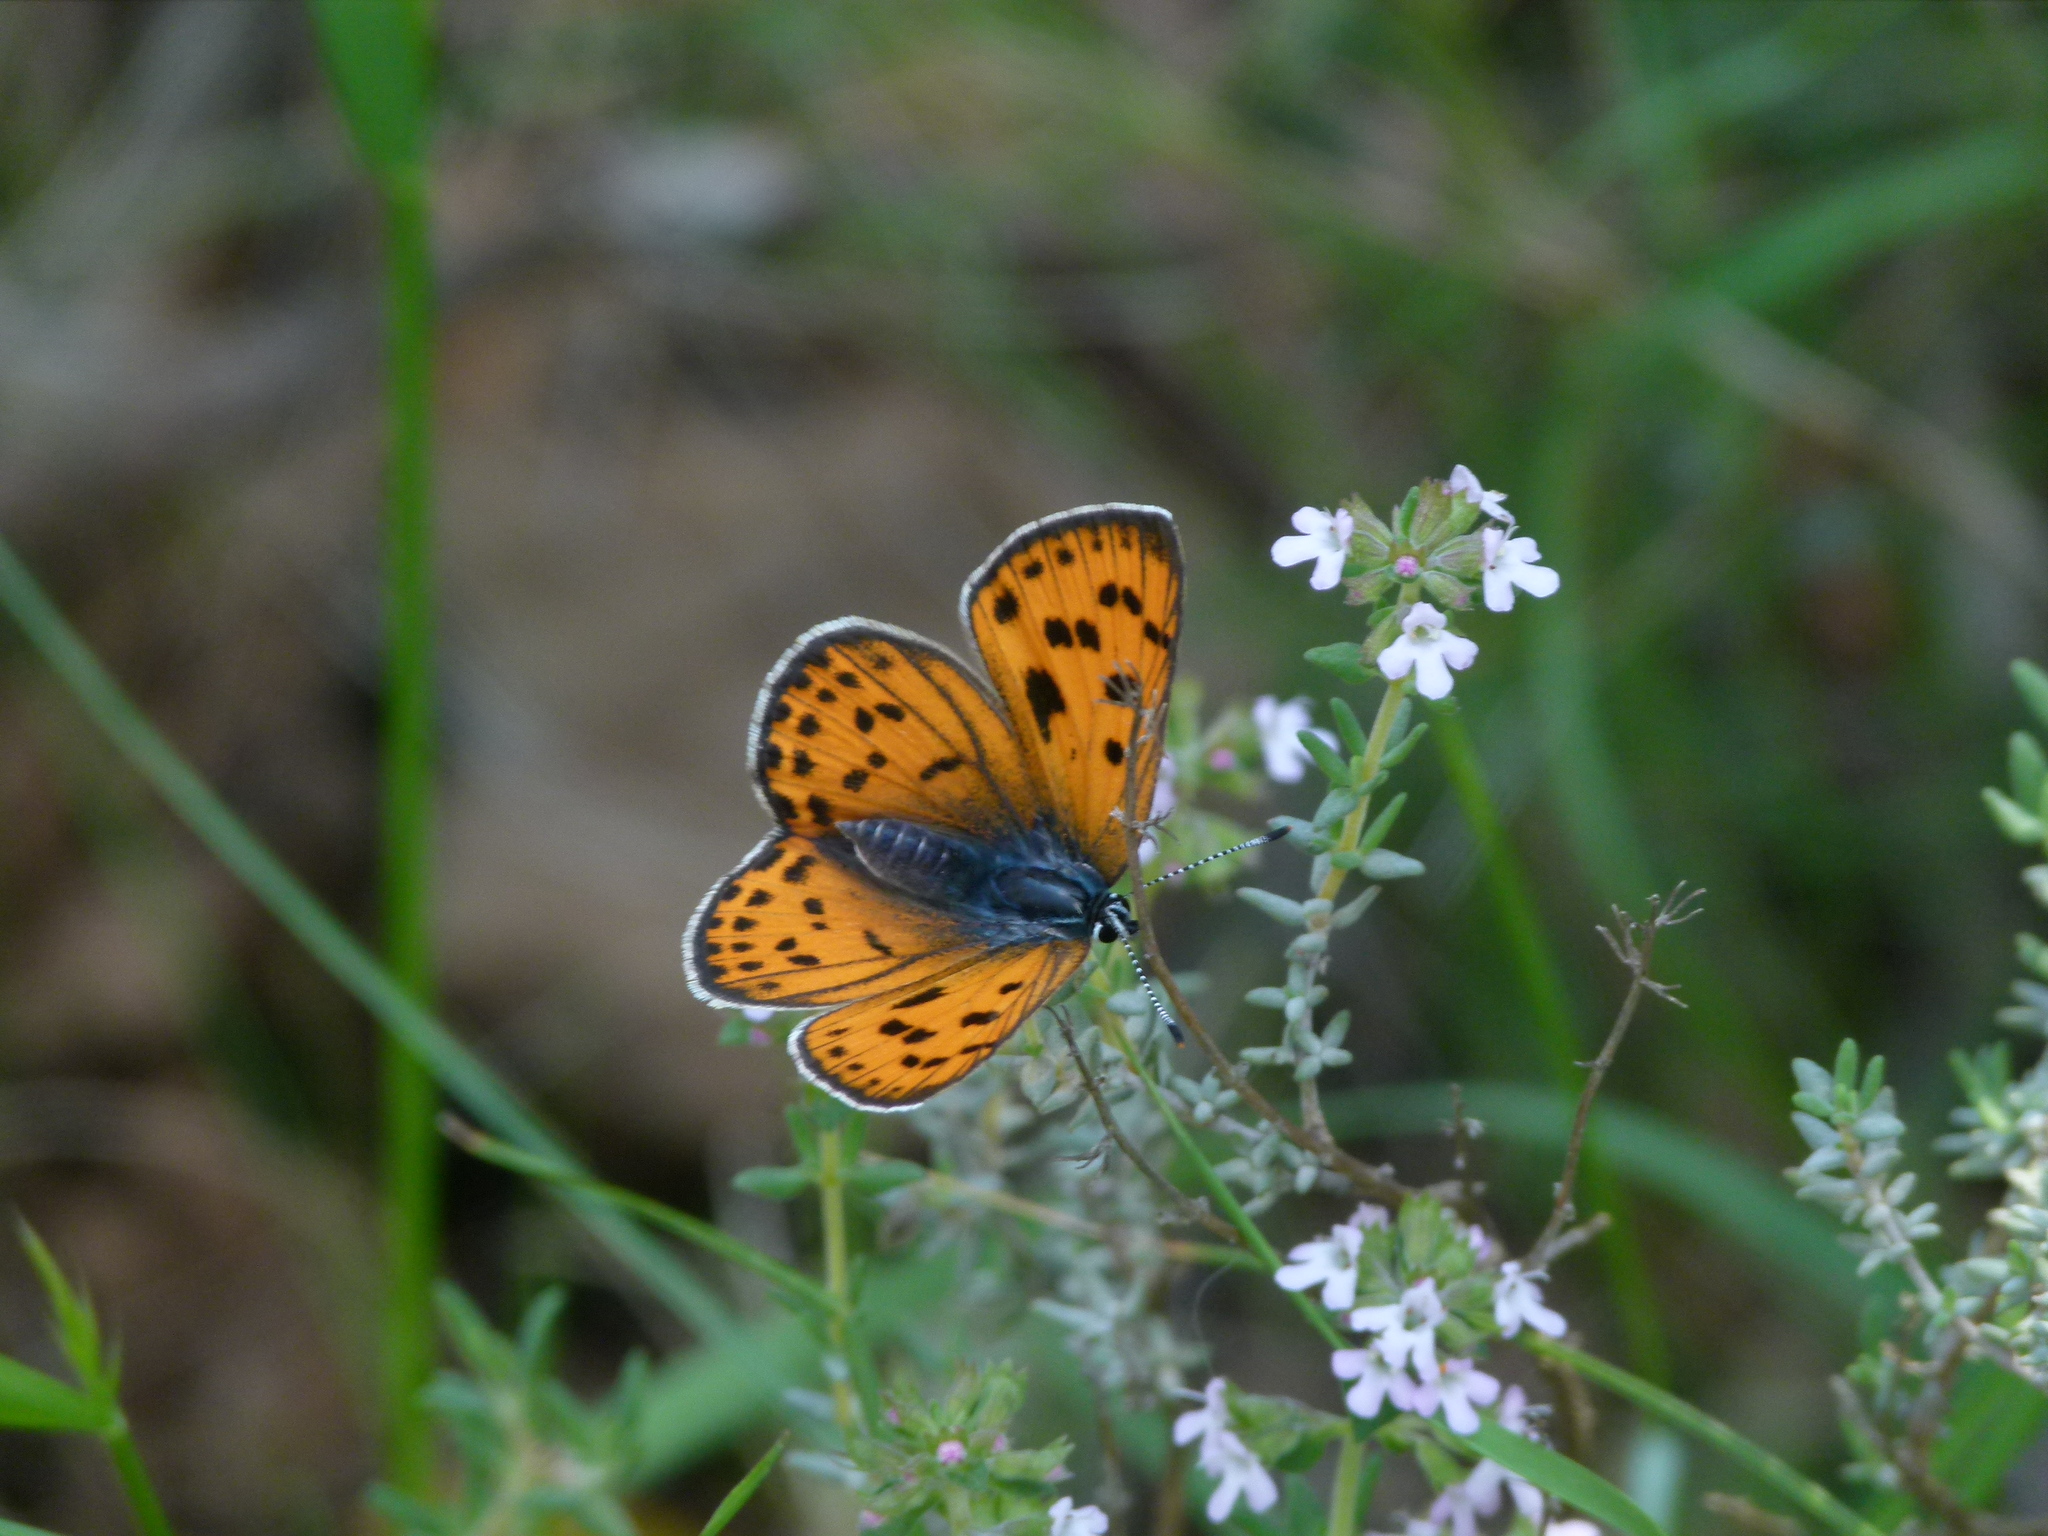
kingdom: Animalia
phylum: Arthropoda
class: Insecta
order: Lepidoptera
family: Lycaenidae
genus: Lycaena
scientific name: Lycaena alciphron
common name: Purple-shot copper
